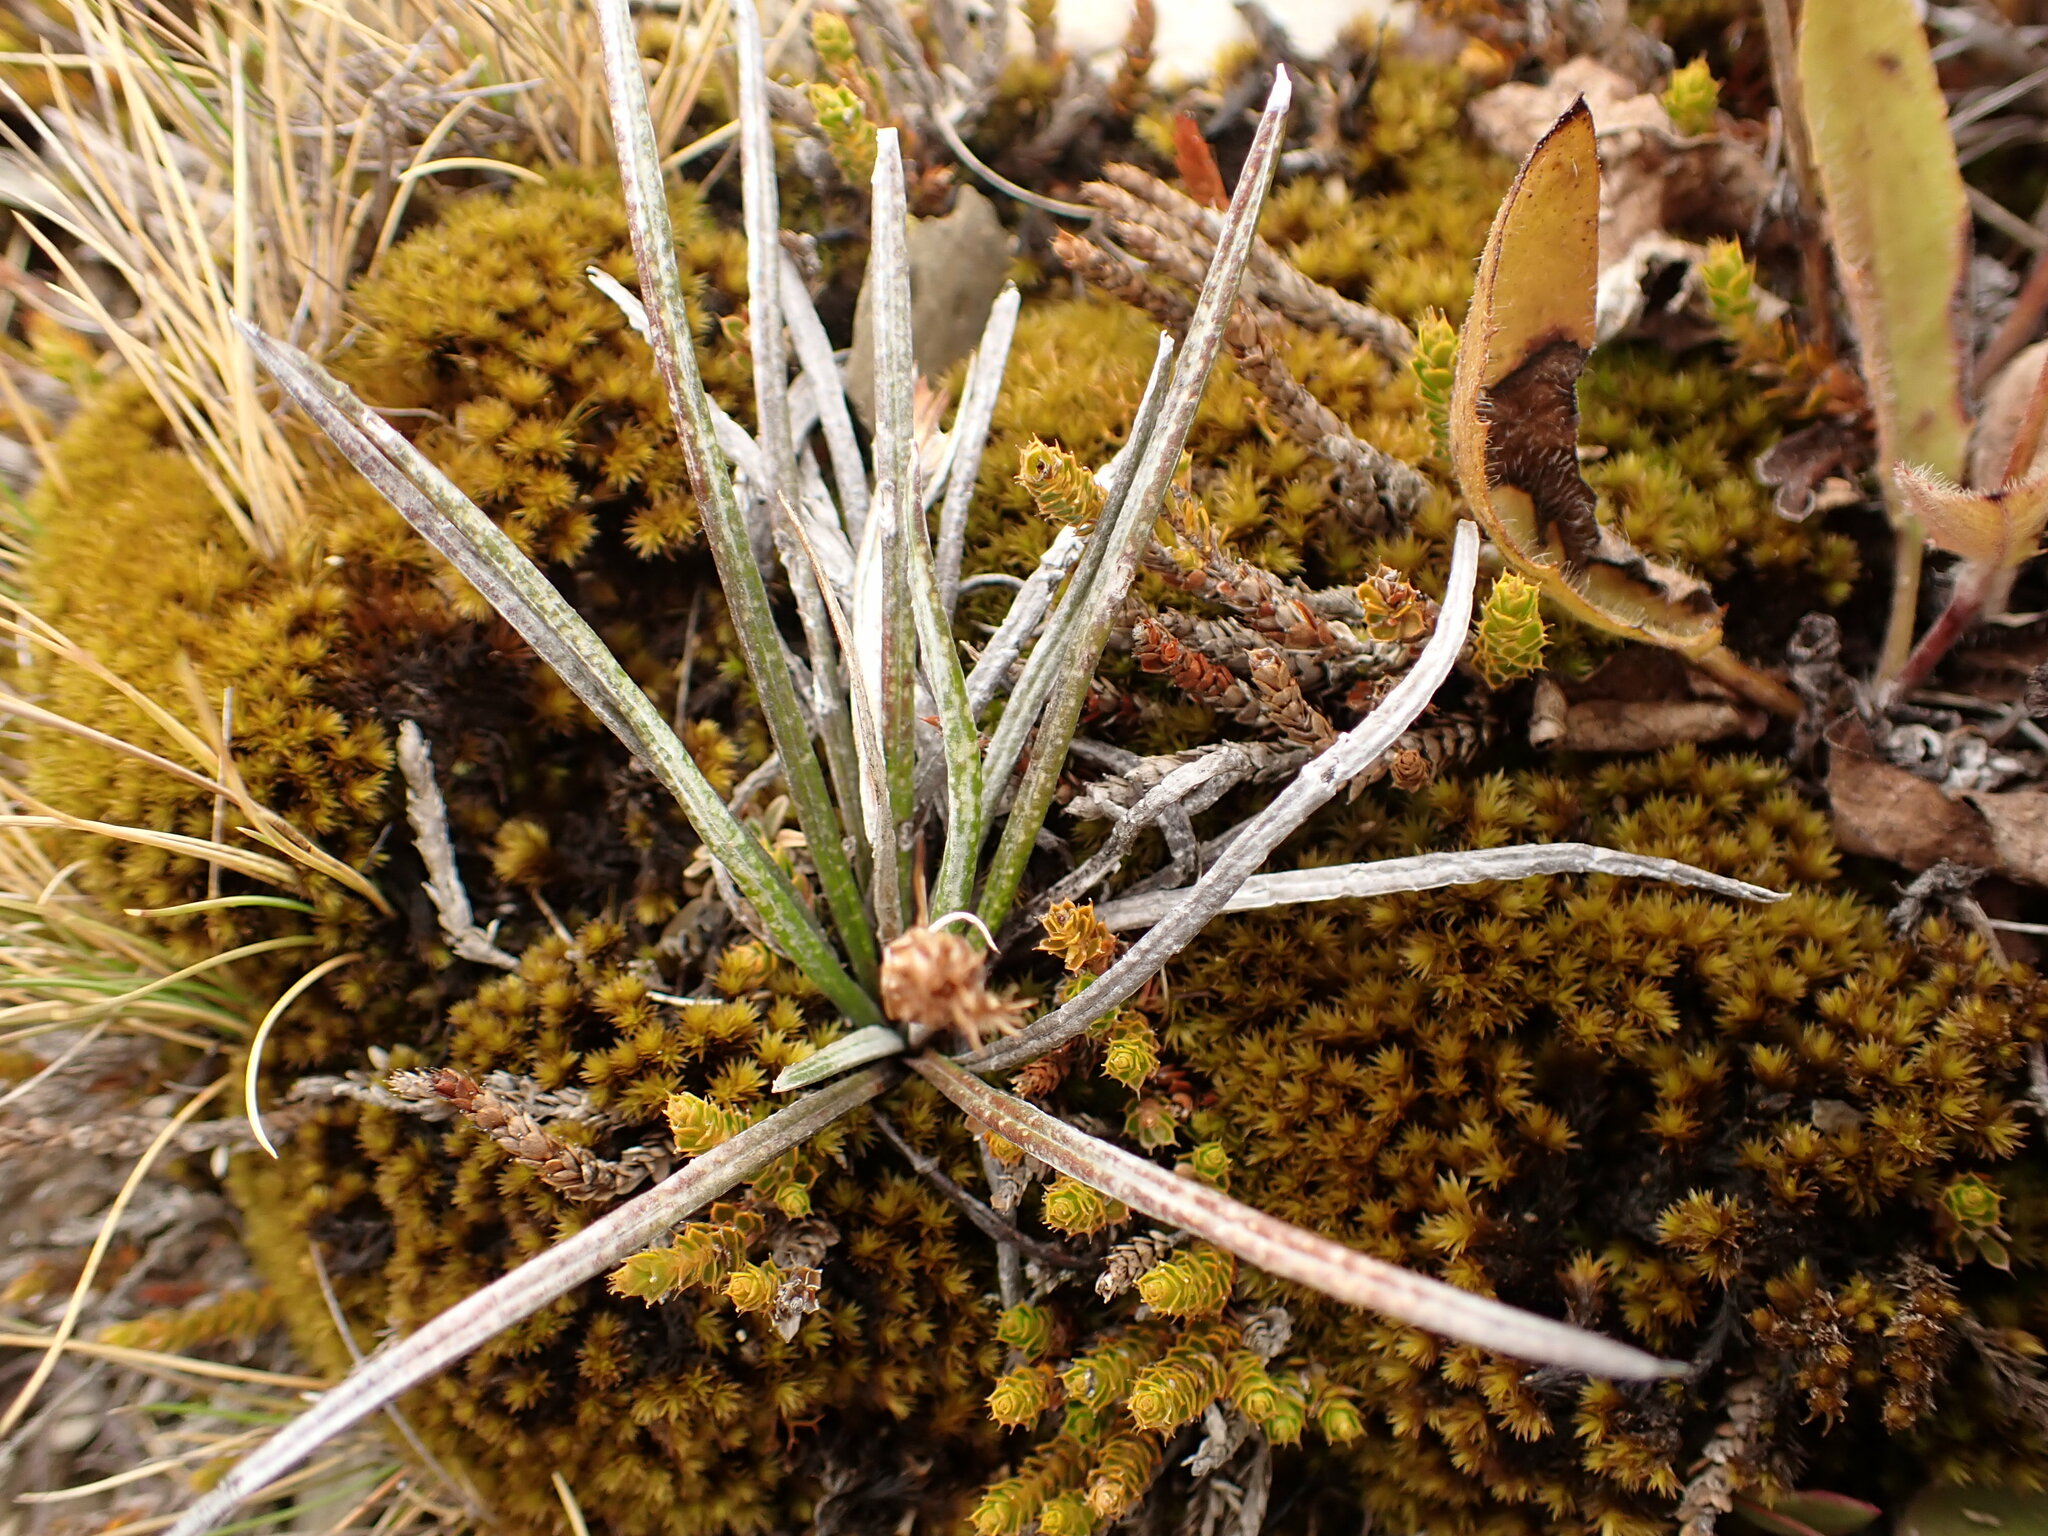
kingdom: Plantae
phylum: Tracheophyta
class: Magnoliopsida
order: Asterales
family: Asteraceae
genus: Celmisia
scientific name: Celmisia gracilenta
